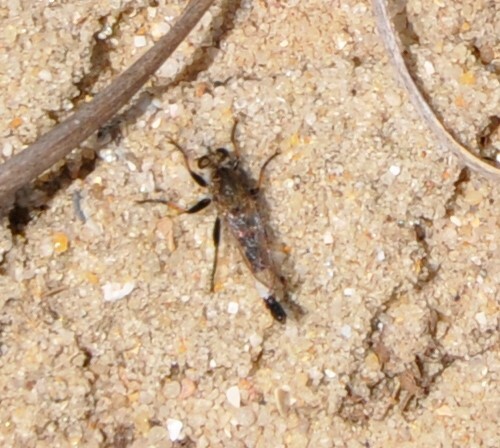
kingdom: Animalia
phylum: Arthropoda
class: Insecta
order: Diptera
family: Asilidae
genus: Efferia
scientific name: Efferia albibarbis
